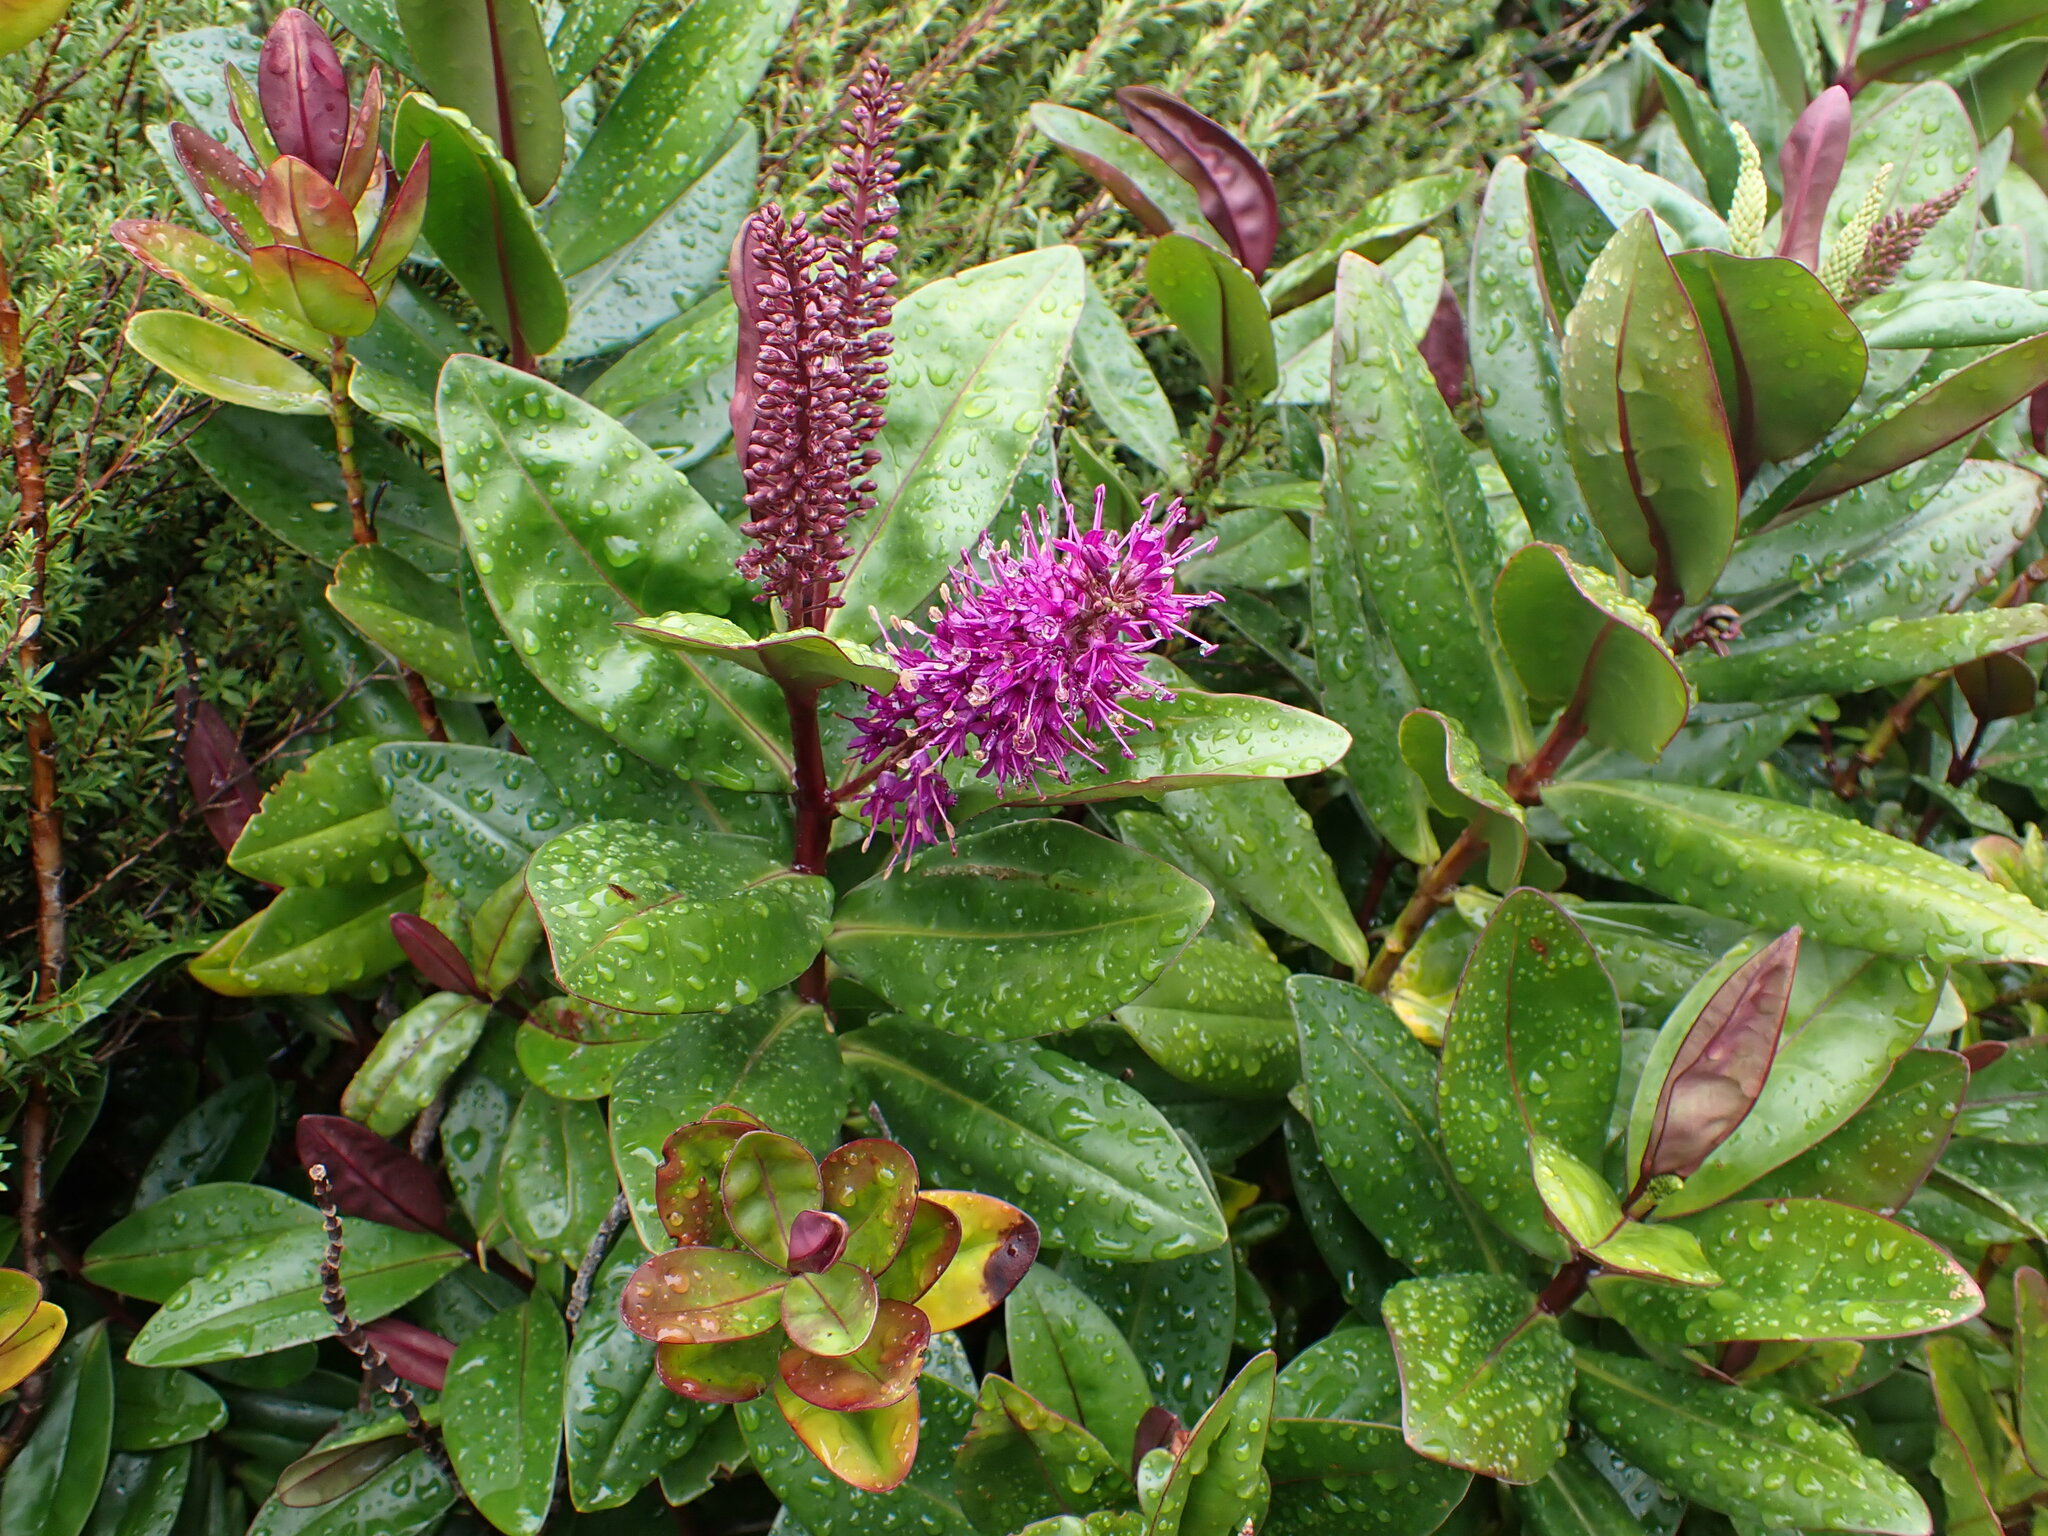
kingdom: Plantae
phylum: Tracheophyta
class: Magnoliopsida
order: Lamiales
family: Plantaginaceae
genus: Veronica
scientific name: Veronica speciosa
